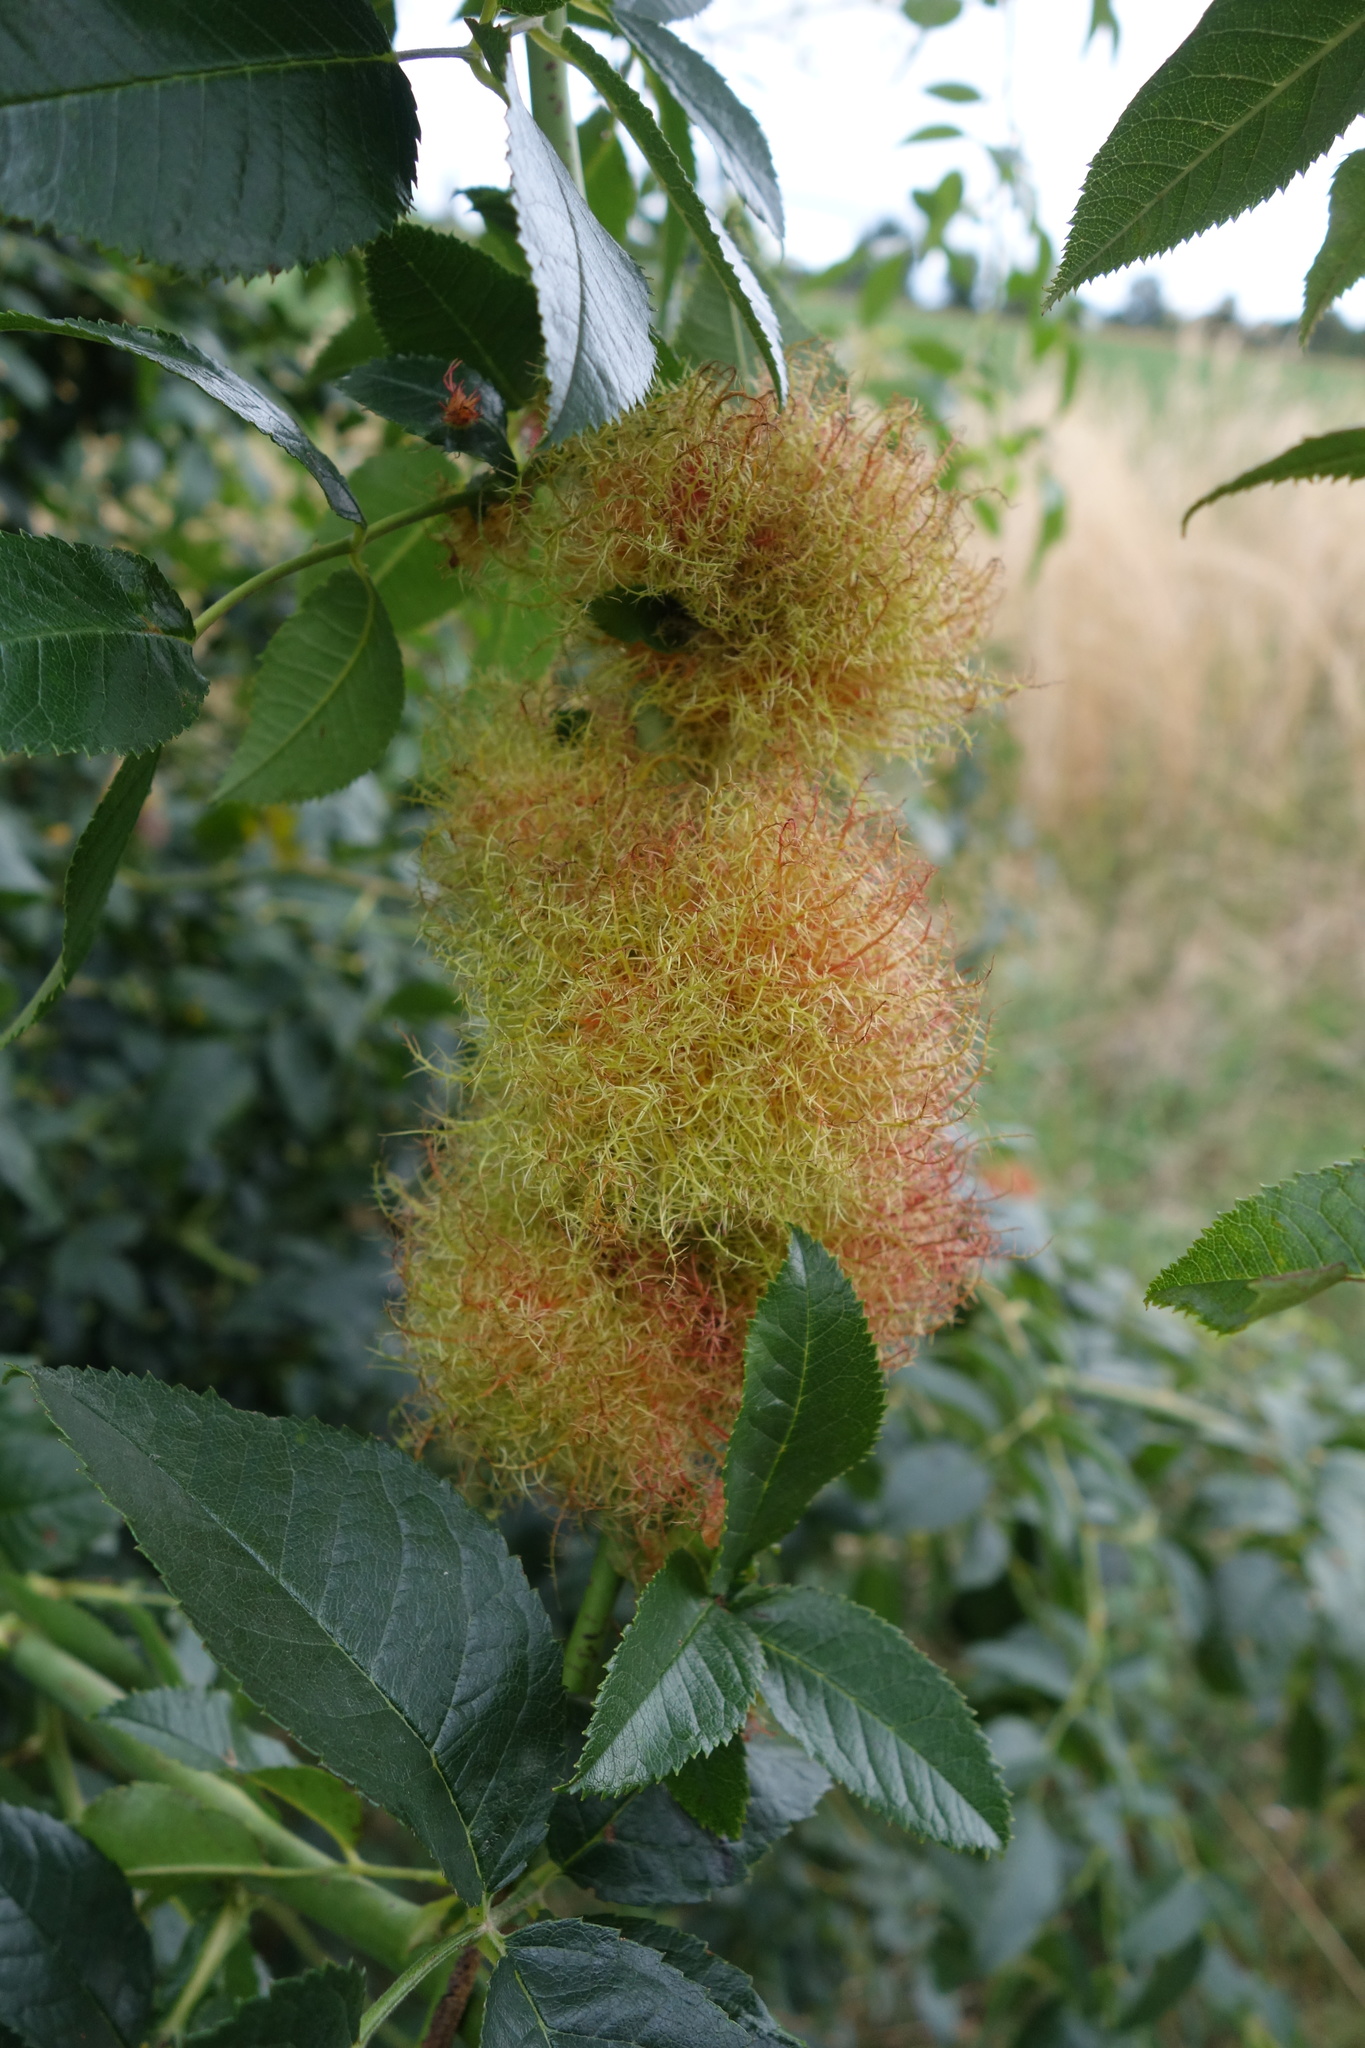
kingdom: Animalia
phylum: Arthropoda
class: Insecta
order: Hymenoptera
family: Cynipidae
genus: Diplolepis
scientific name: Diplolepis rosae
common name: Bedeguar gall
